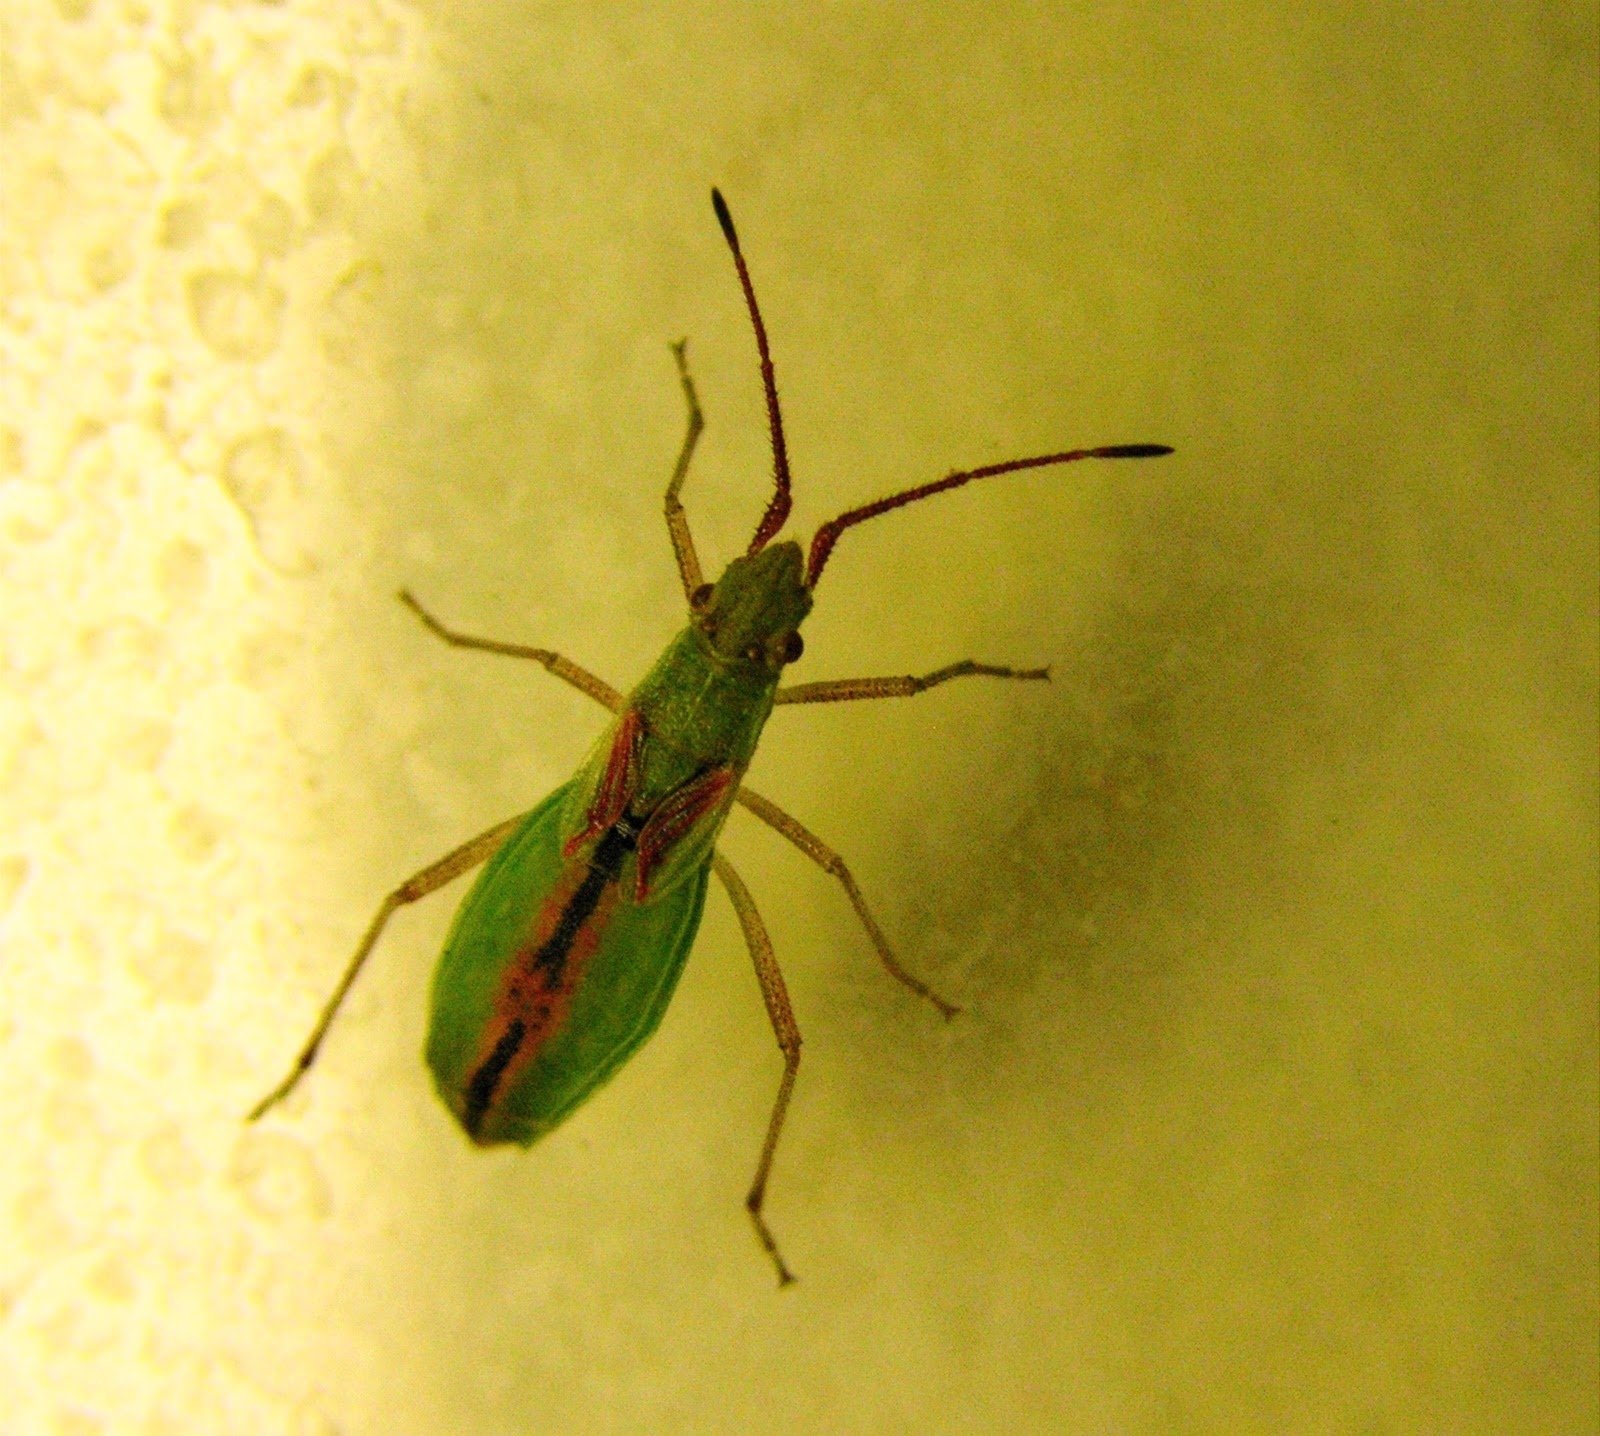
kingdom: Animalia
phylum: Arthropoda
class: Insecta
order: Hemiptera
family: Rhopalidae
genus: Myrmus
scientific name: Myrmus miriformis
